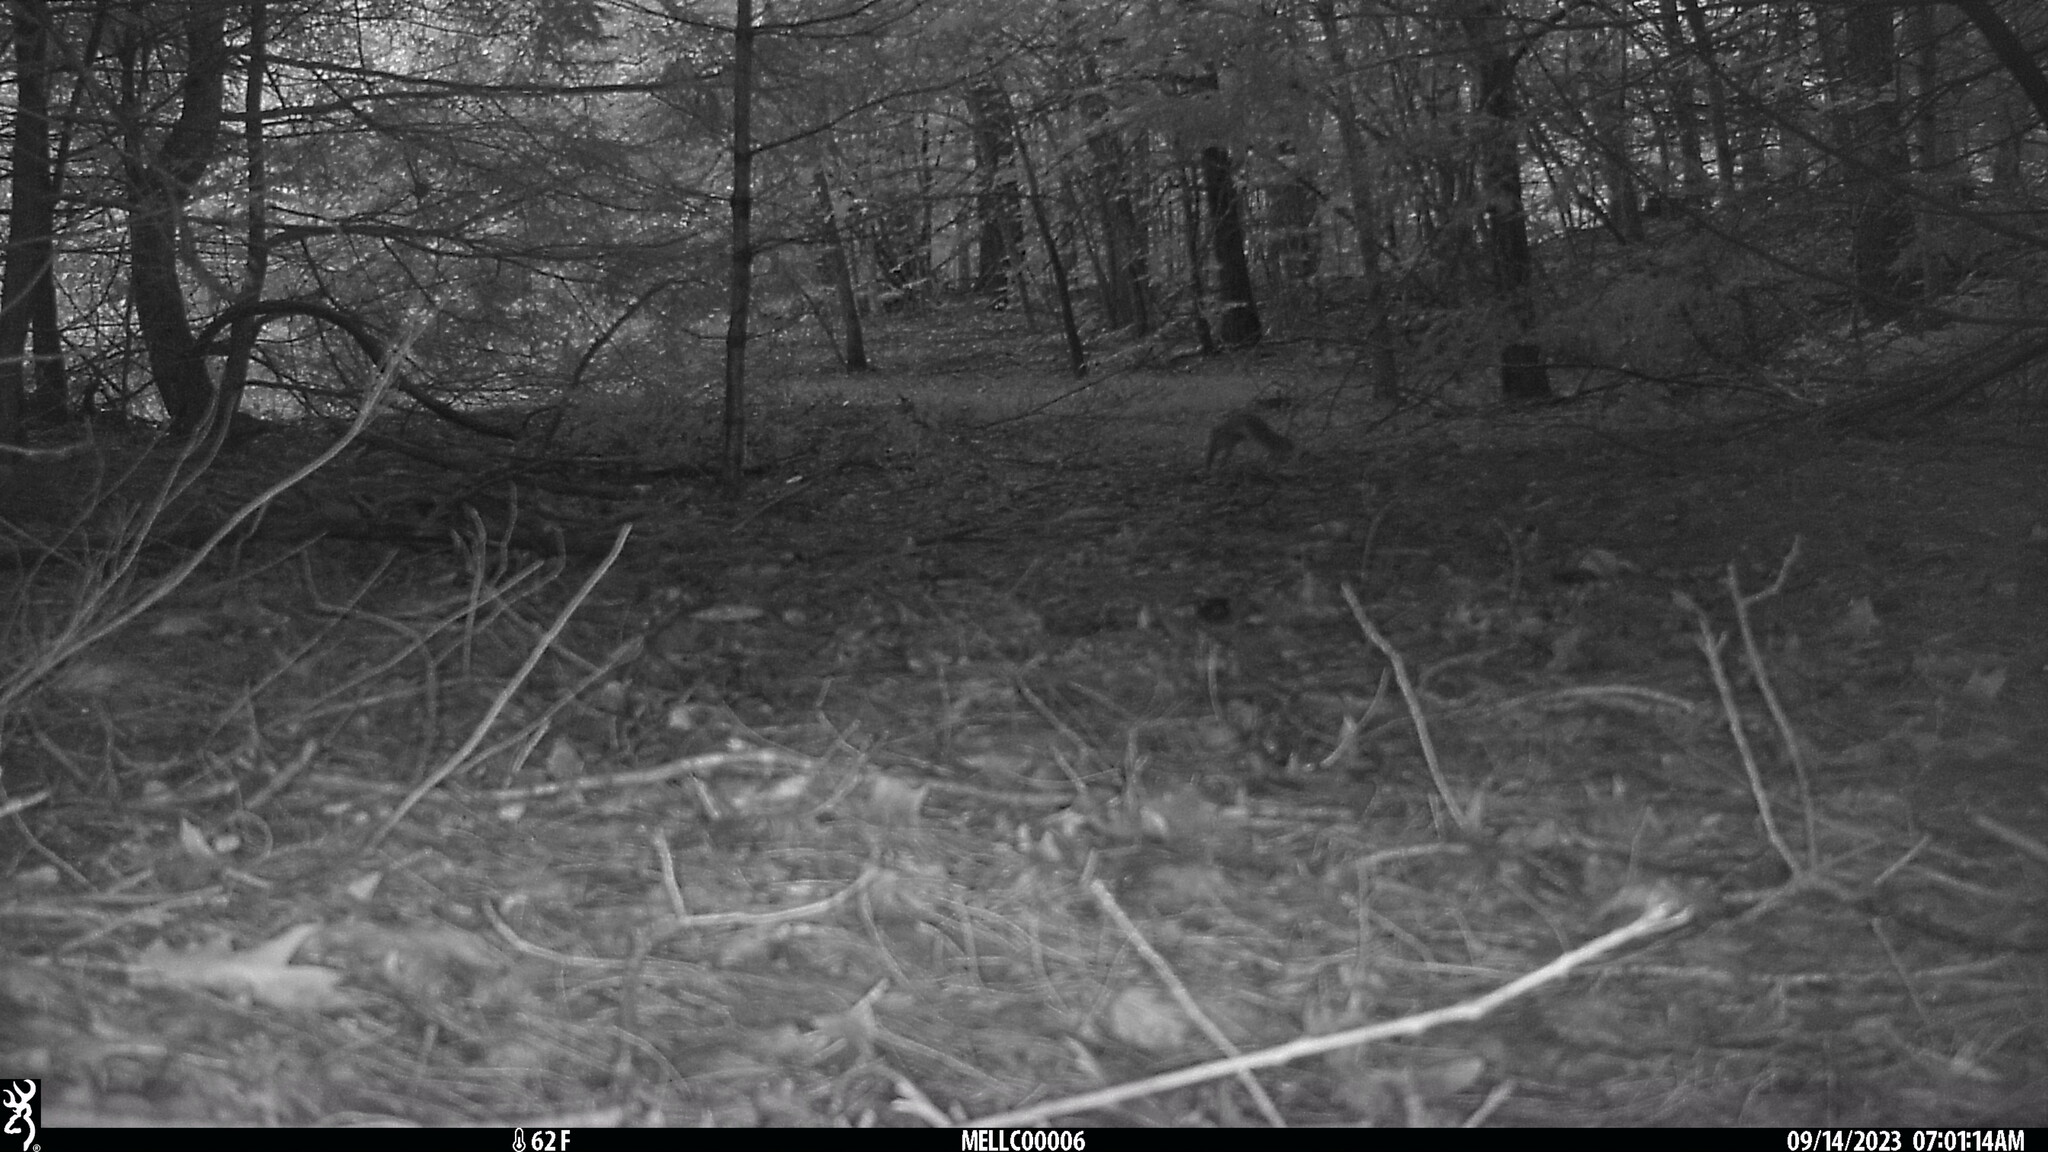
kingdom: Animalia
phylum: Chordata
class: Mammalia
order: Rodentia
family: Sciuridae
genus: Sciurus
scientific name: Sciurus carolinensis
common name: Eastern gray squirrel
